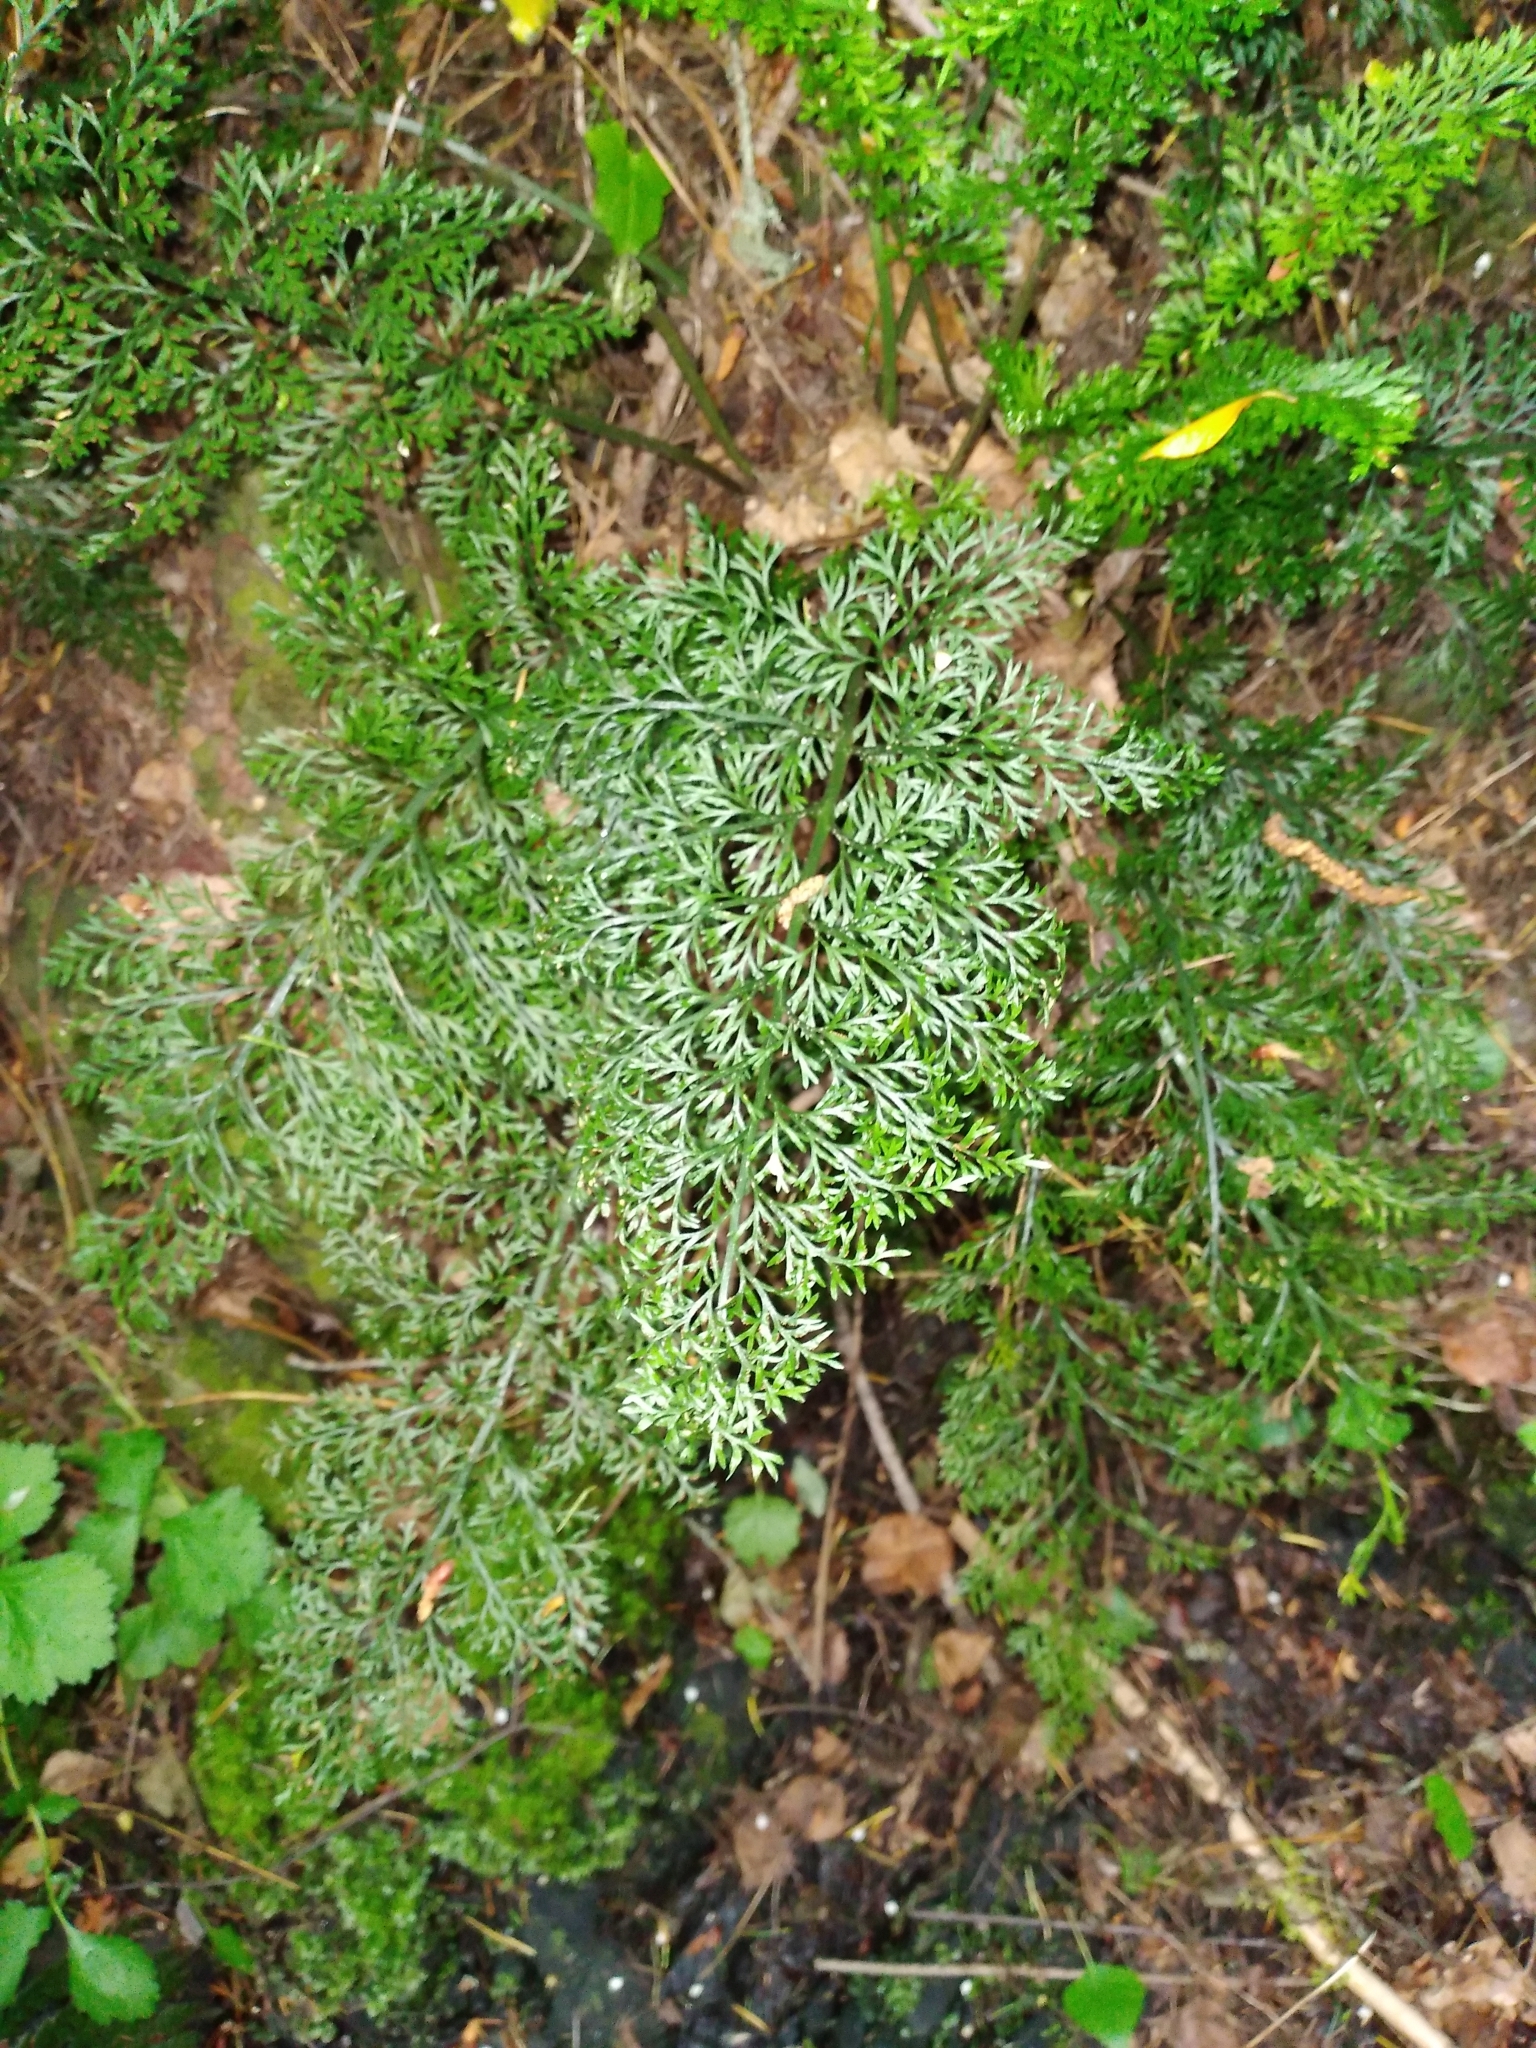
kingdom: Plantae
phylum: Tracheophyta
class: Polypodiopsida
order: Polypodiales
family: Aspleniaceae
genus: Asplenium
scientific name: Asplenium richardii
